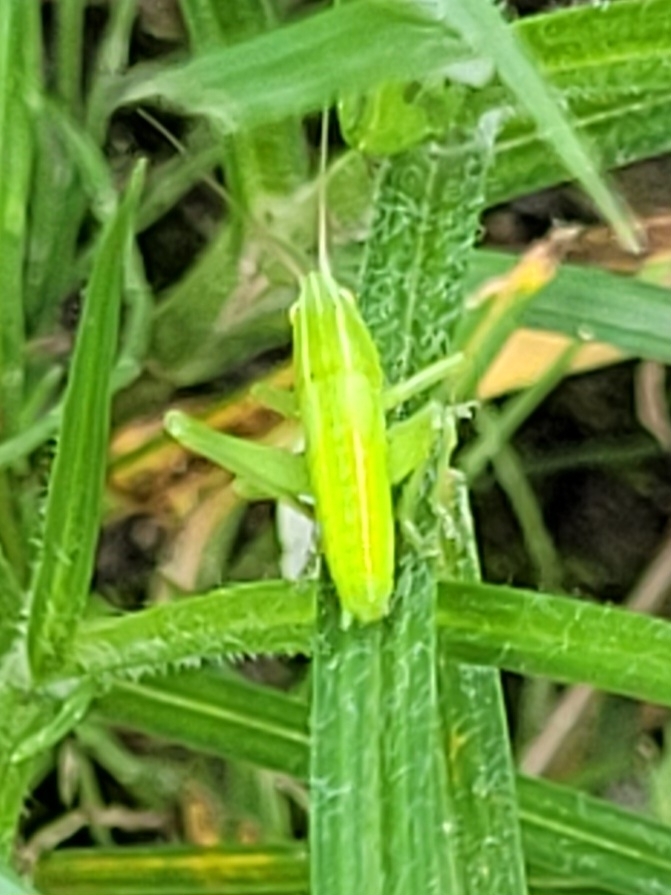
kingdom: Animalia
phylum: Arthropoda
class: Insecta
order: Orthoptera
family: Tettigoniidae
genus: Ruspolia
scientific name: Ruspolia nitidula
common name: Large conehead
